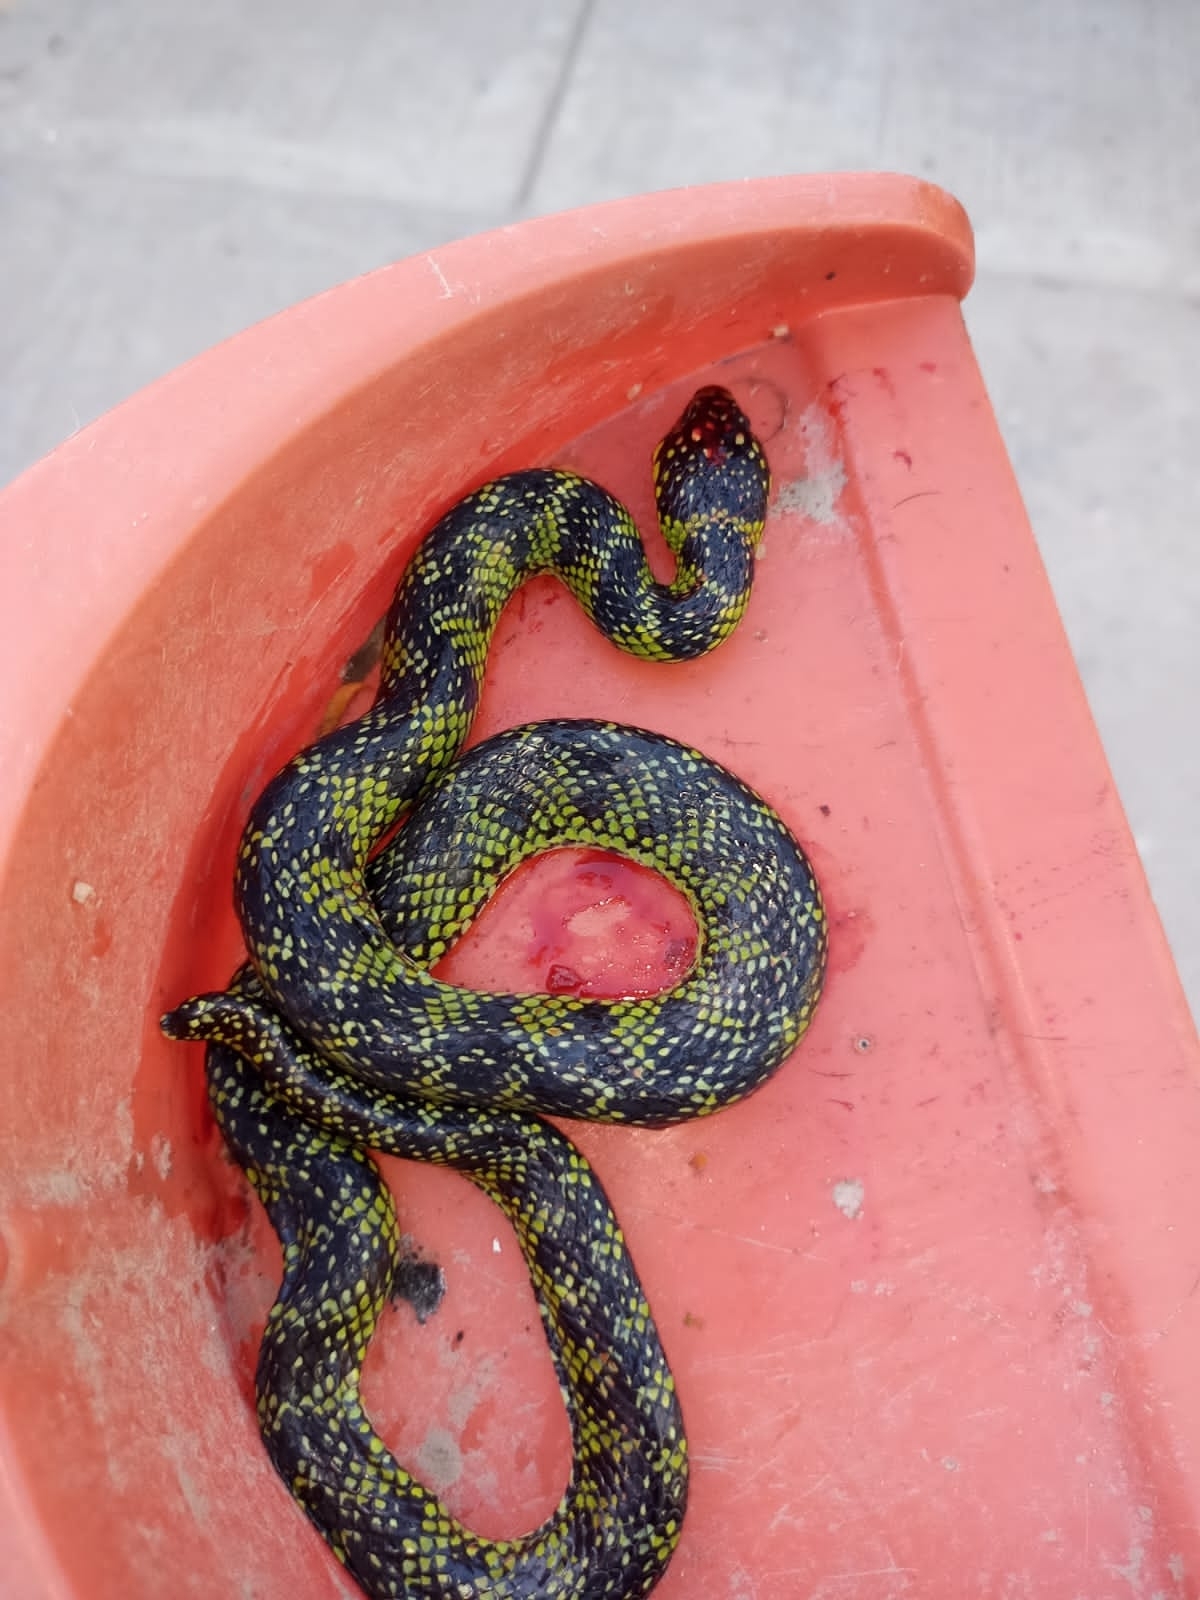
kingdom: Animalia
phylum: Chordata
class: Squamata
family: Colubridae
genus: Erythrolamprus
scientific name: Erythrolamprus poecilogyrus
